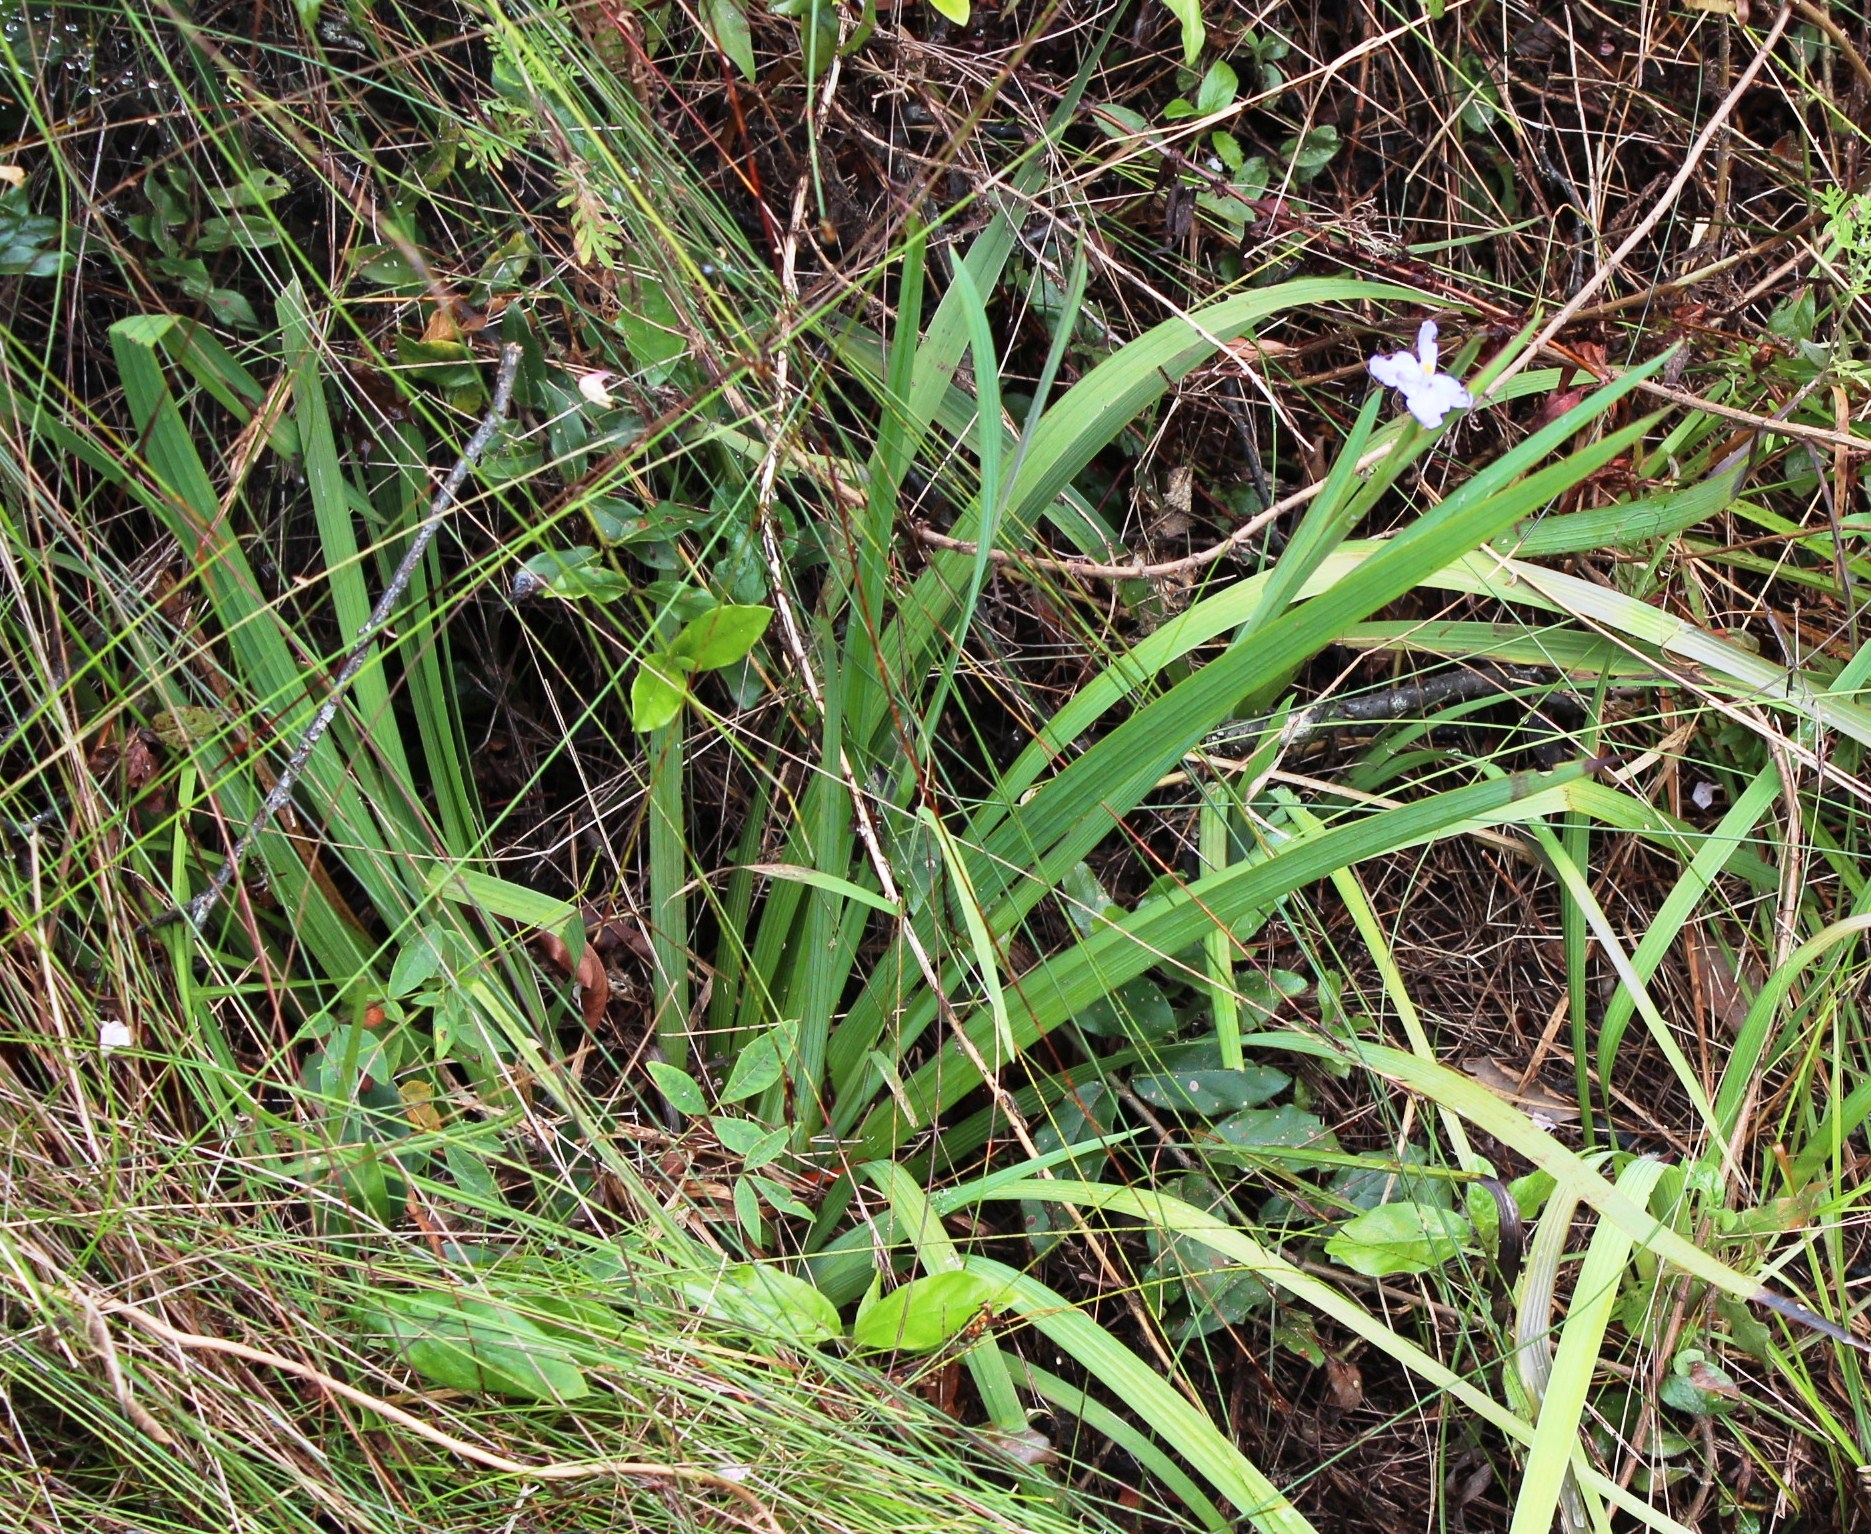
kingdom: Plantae
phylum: Tracheophyta
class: Liliopsida
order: Asparagales
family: Iridaceae
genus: Aristea
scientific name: Aristea ensifolia
